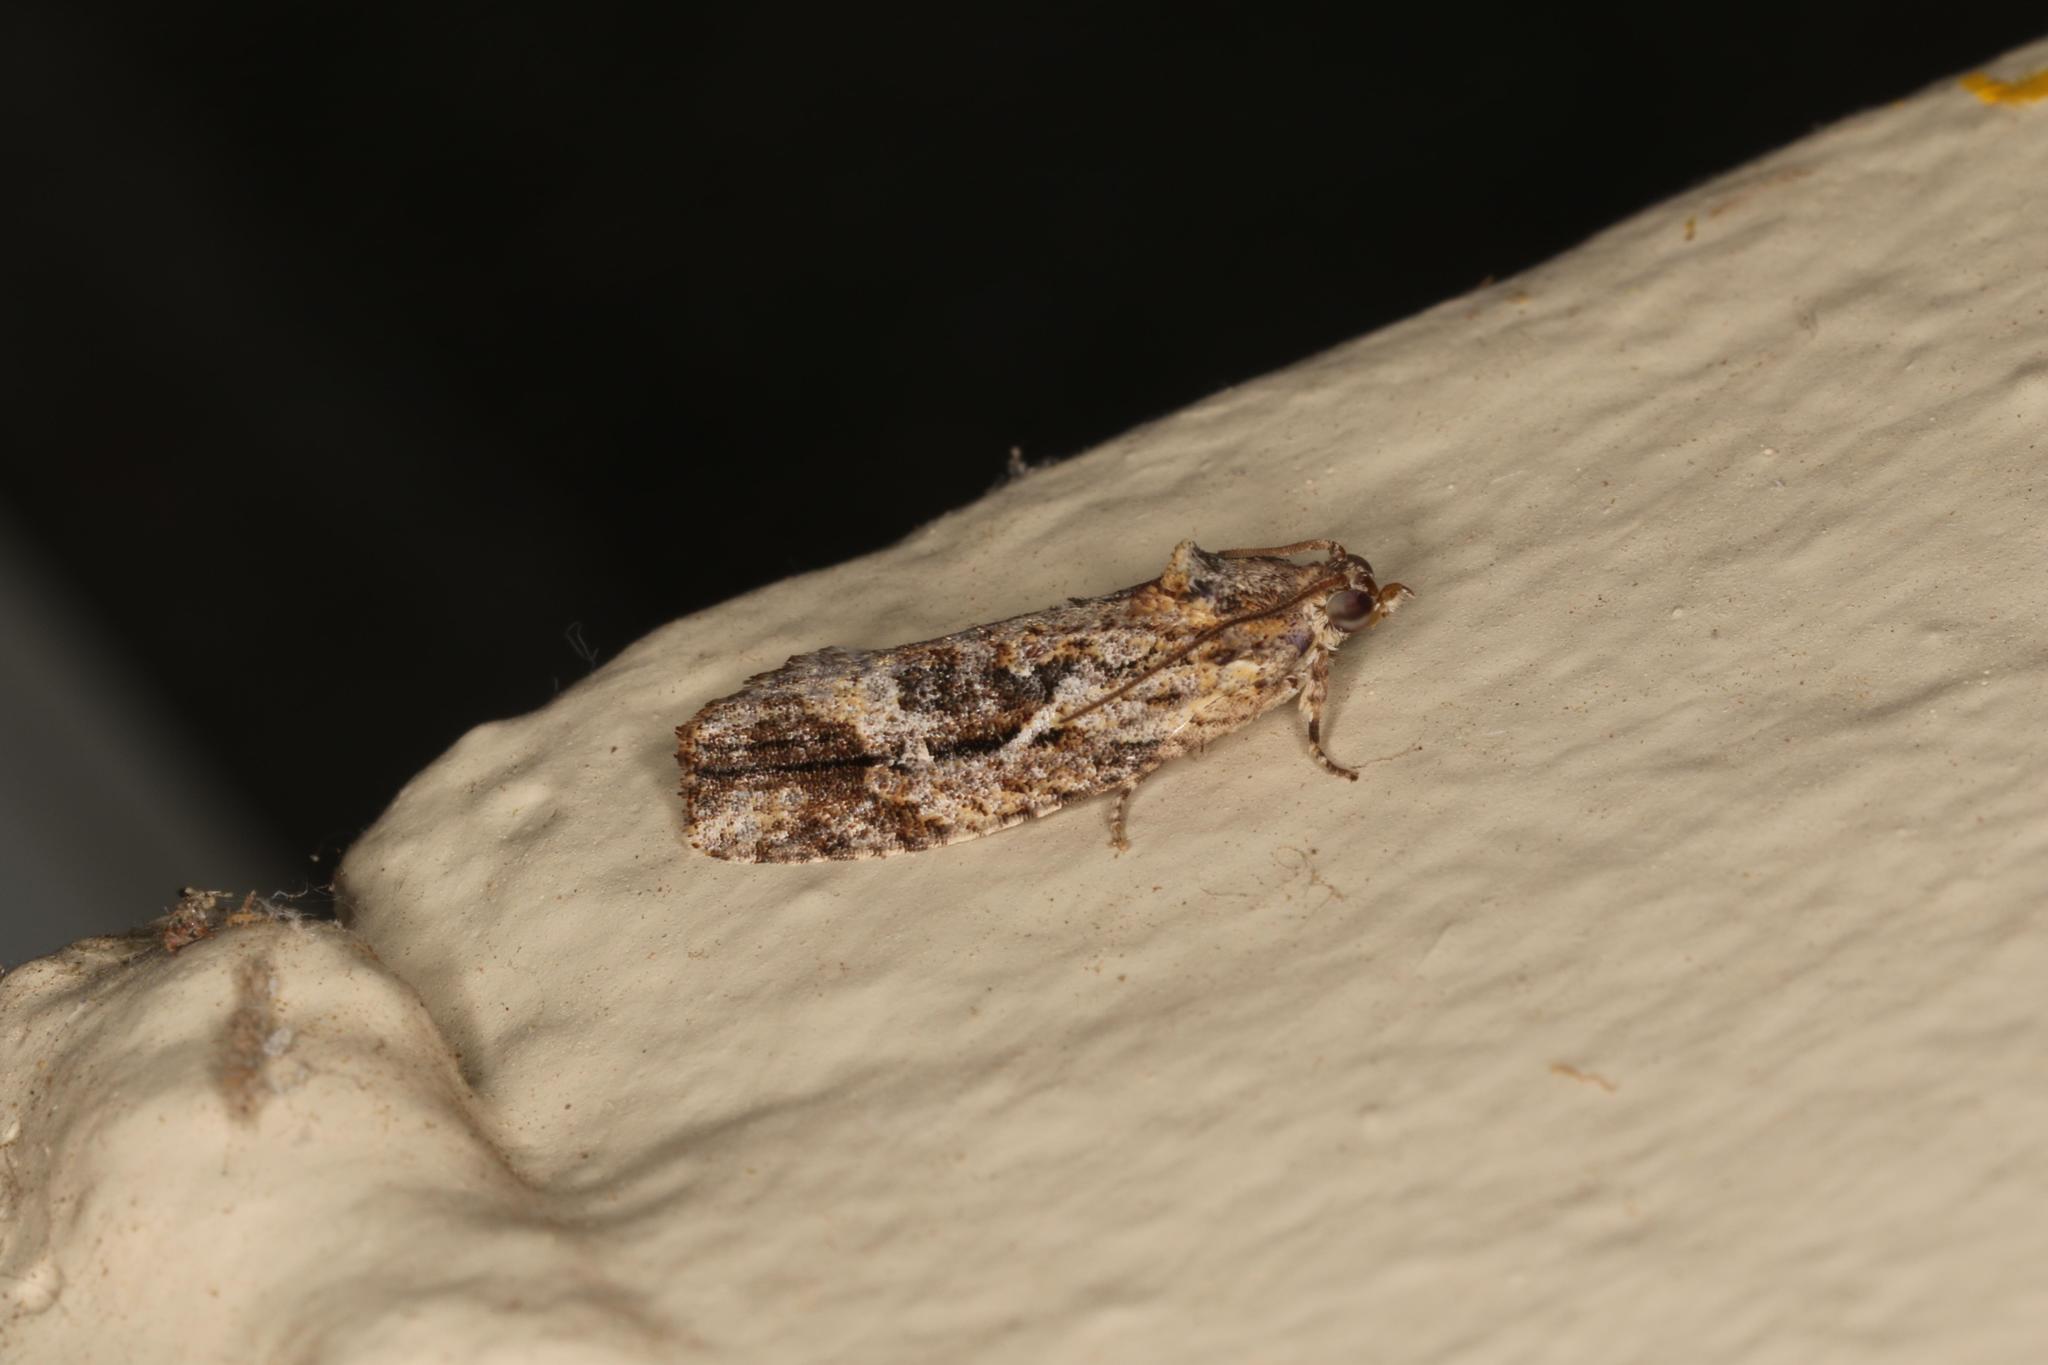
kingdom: Animalia
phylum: Arthropoda
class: Insecta
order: Lepidoptera
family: Tortricidae
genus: Acropolitis
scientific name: Acropolitis rudisana
